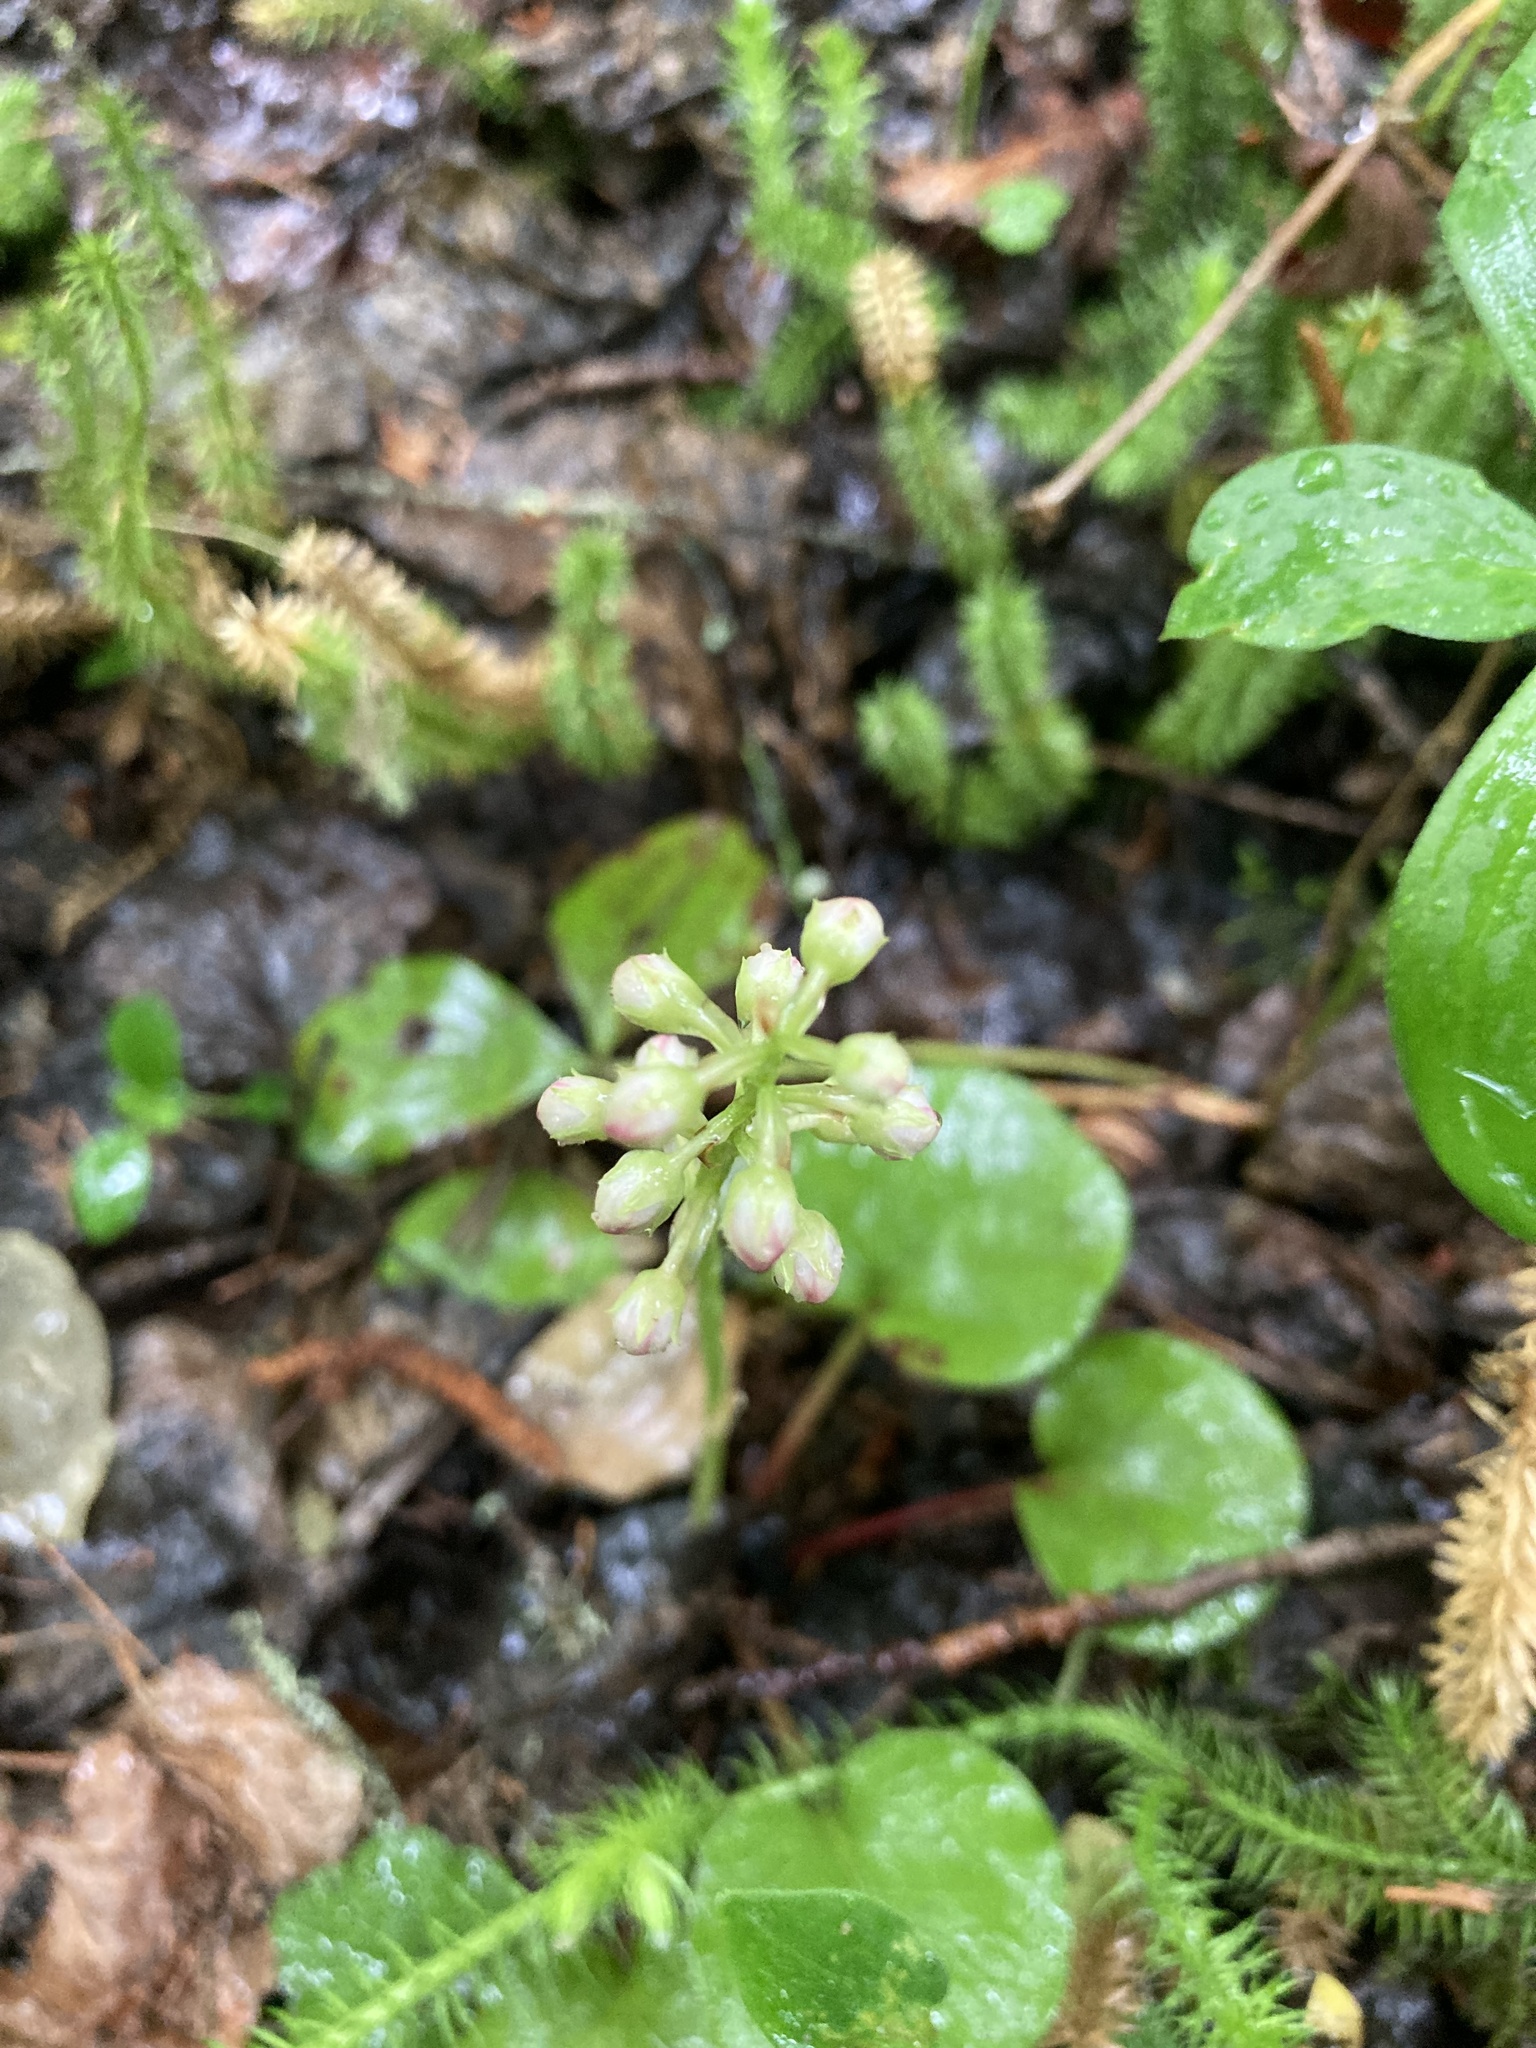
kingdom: Plantae
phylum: Tracheophyta
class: Magnoliopsida
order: Ericales
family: Ericaceae
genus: Pyrola
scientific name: Pyrola asarifolia
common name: Bog wintergreen
